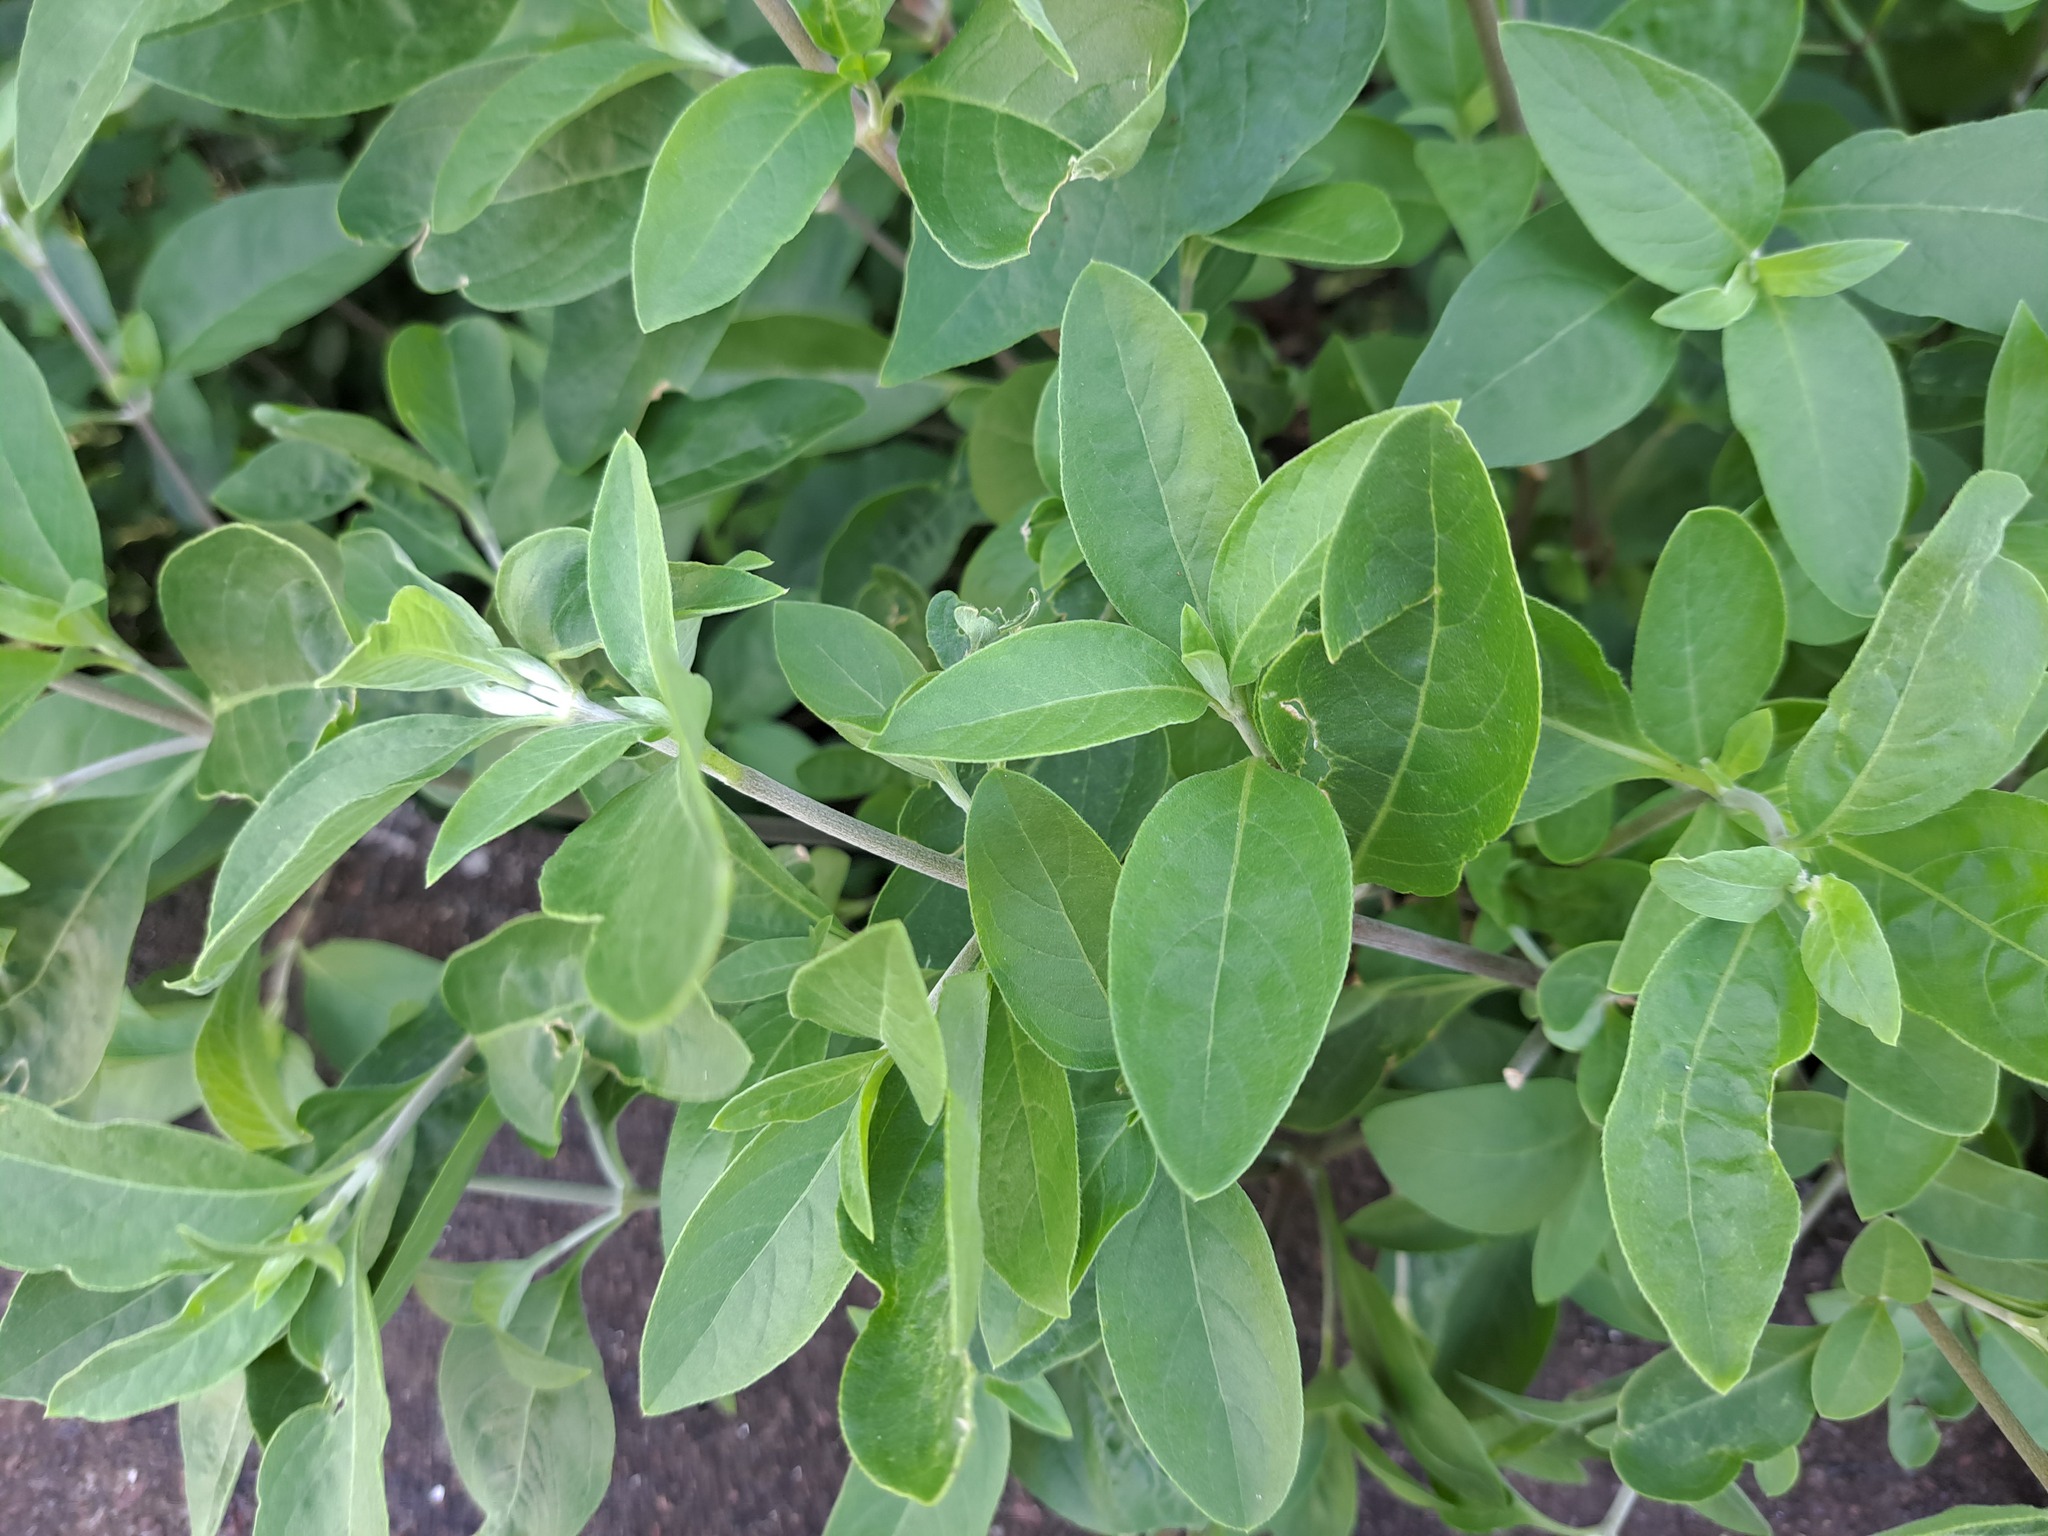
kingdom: Plantae
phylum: Tracheophyta
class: Magnoliopsida
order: Fabales
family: Fabaceae
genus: Clitoria
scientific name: Clitoria ternatea
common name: Asian pigeonwings
